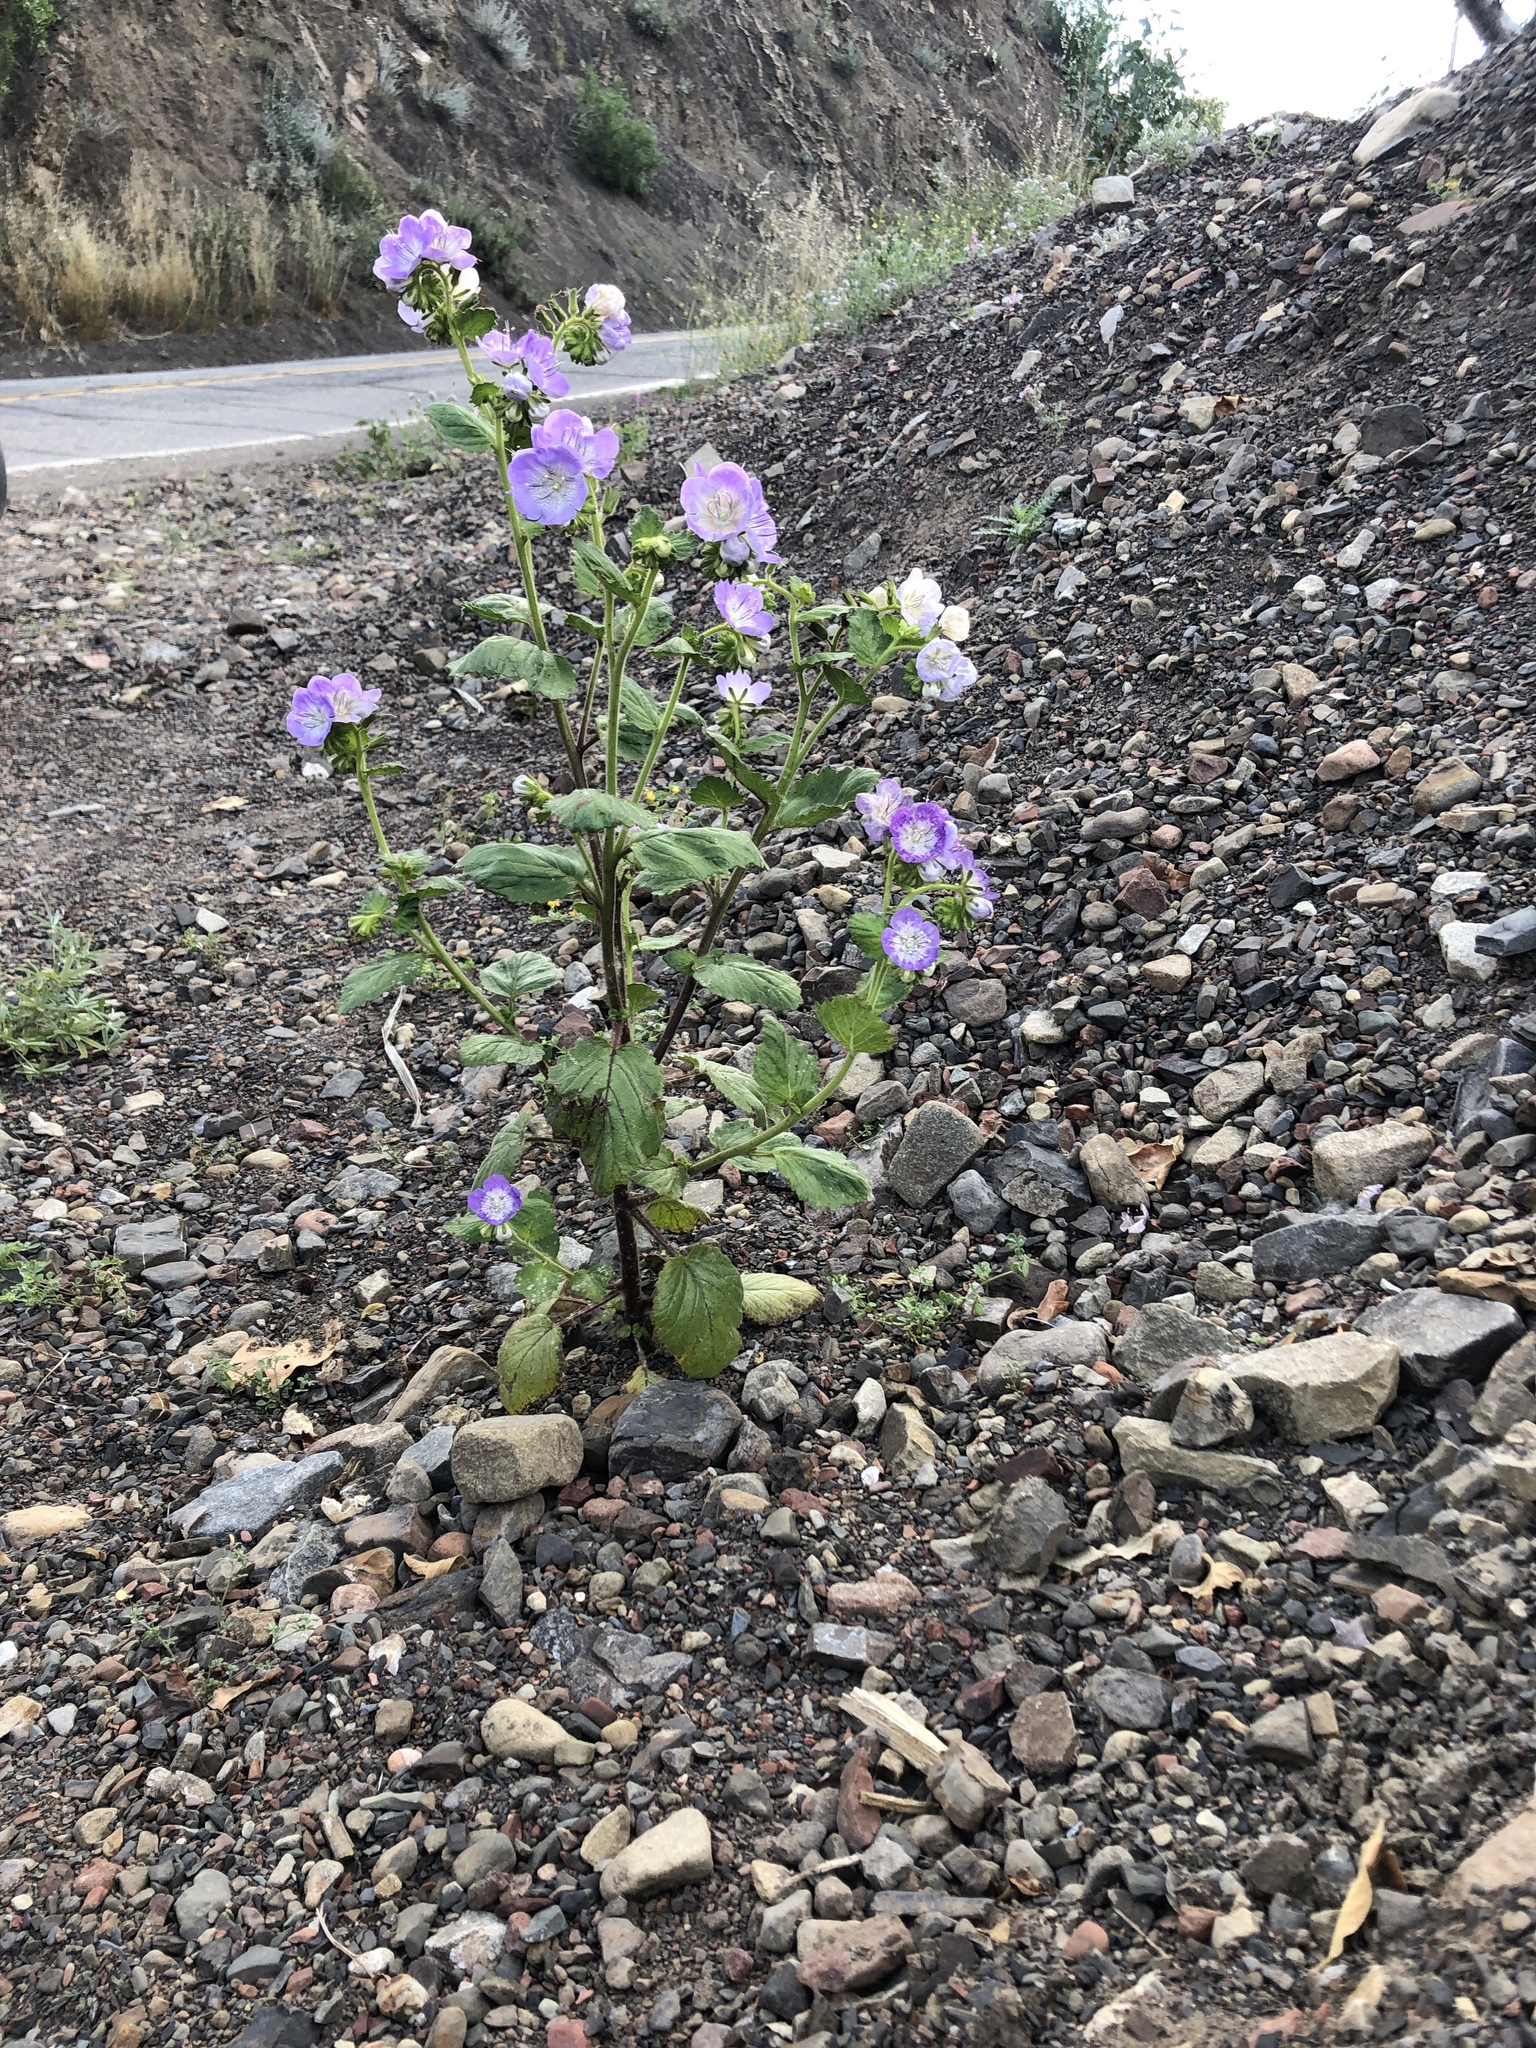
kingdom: Plantae
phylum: Tracheophyta
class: Magnoliopsida
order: Boraginales
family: Hydrophyllaceae
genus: Phacelia
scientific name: Phacelia grandiflora
